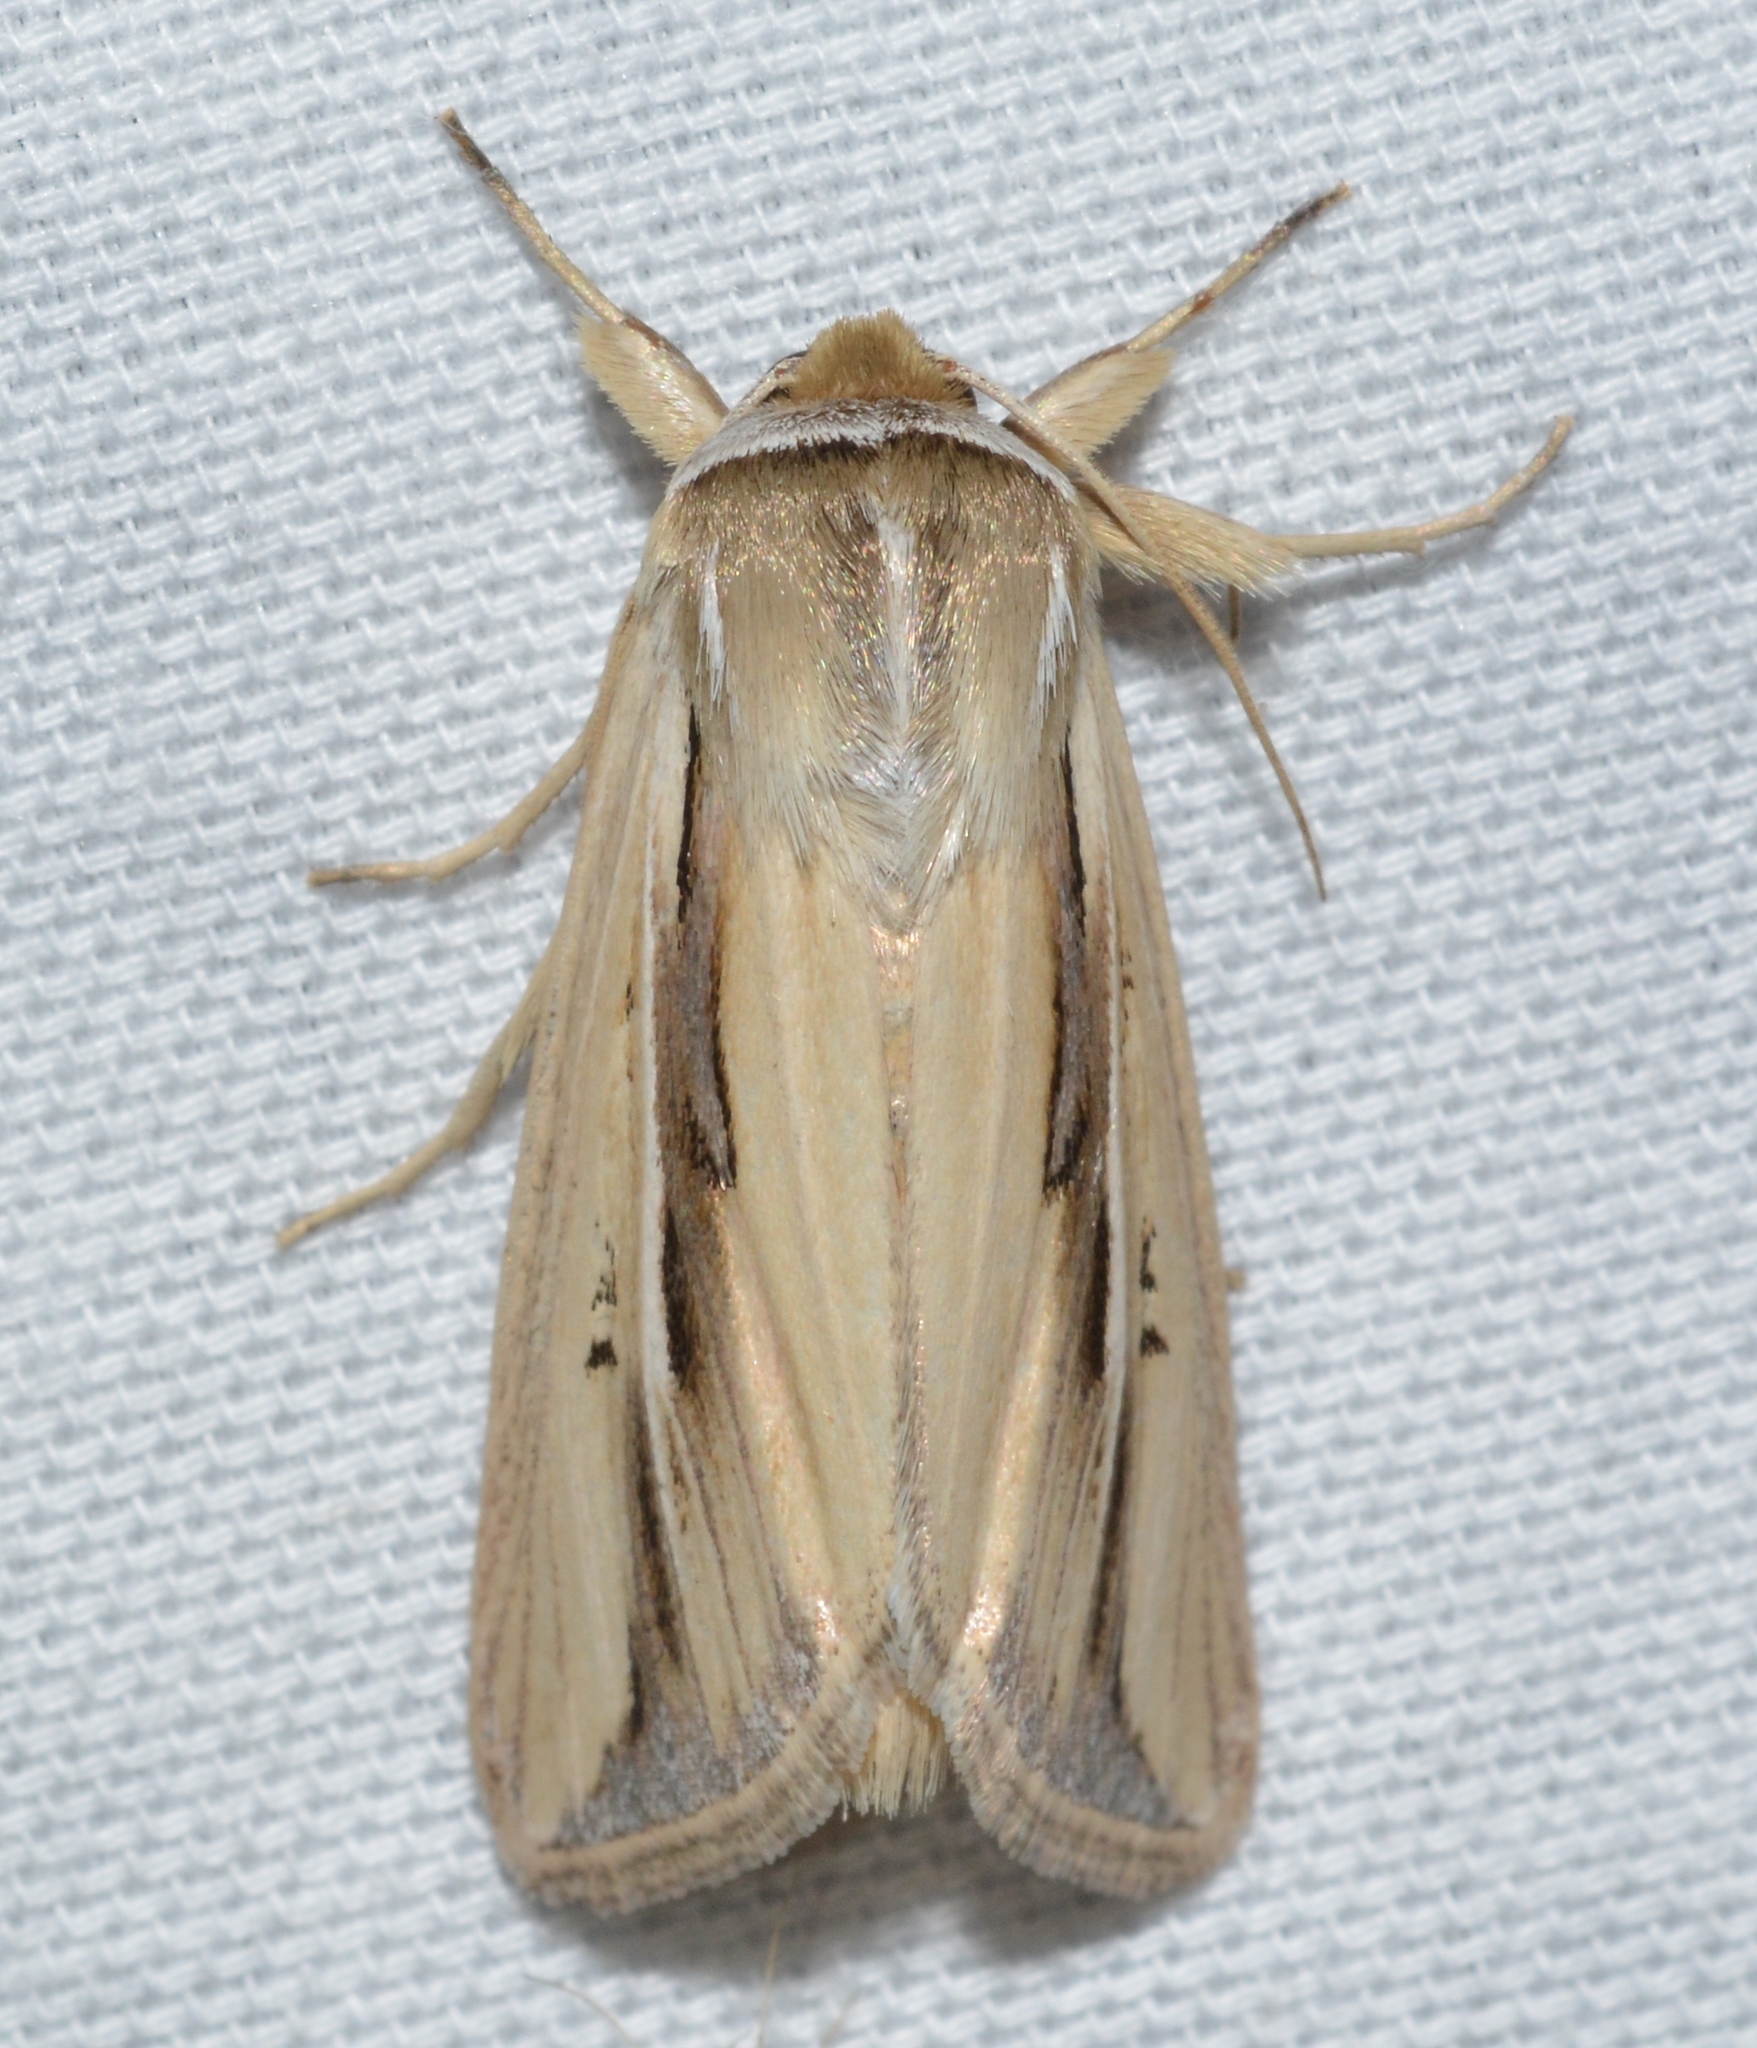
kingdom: Animalia
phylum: Arthropoda
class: Insecta
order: Lepidoptera
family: Noctuidae
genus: Dargida
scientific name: Dargida diffusa
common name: Wheat head armyworm
